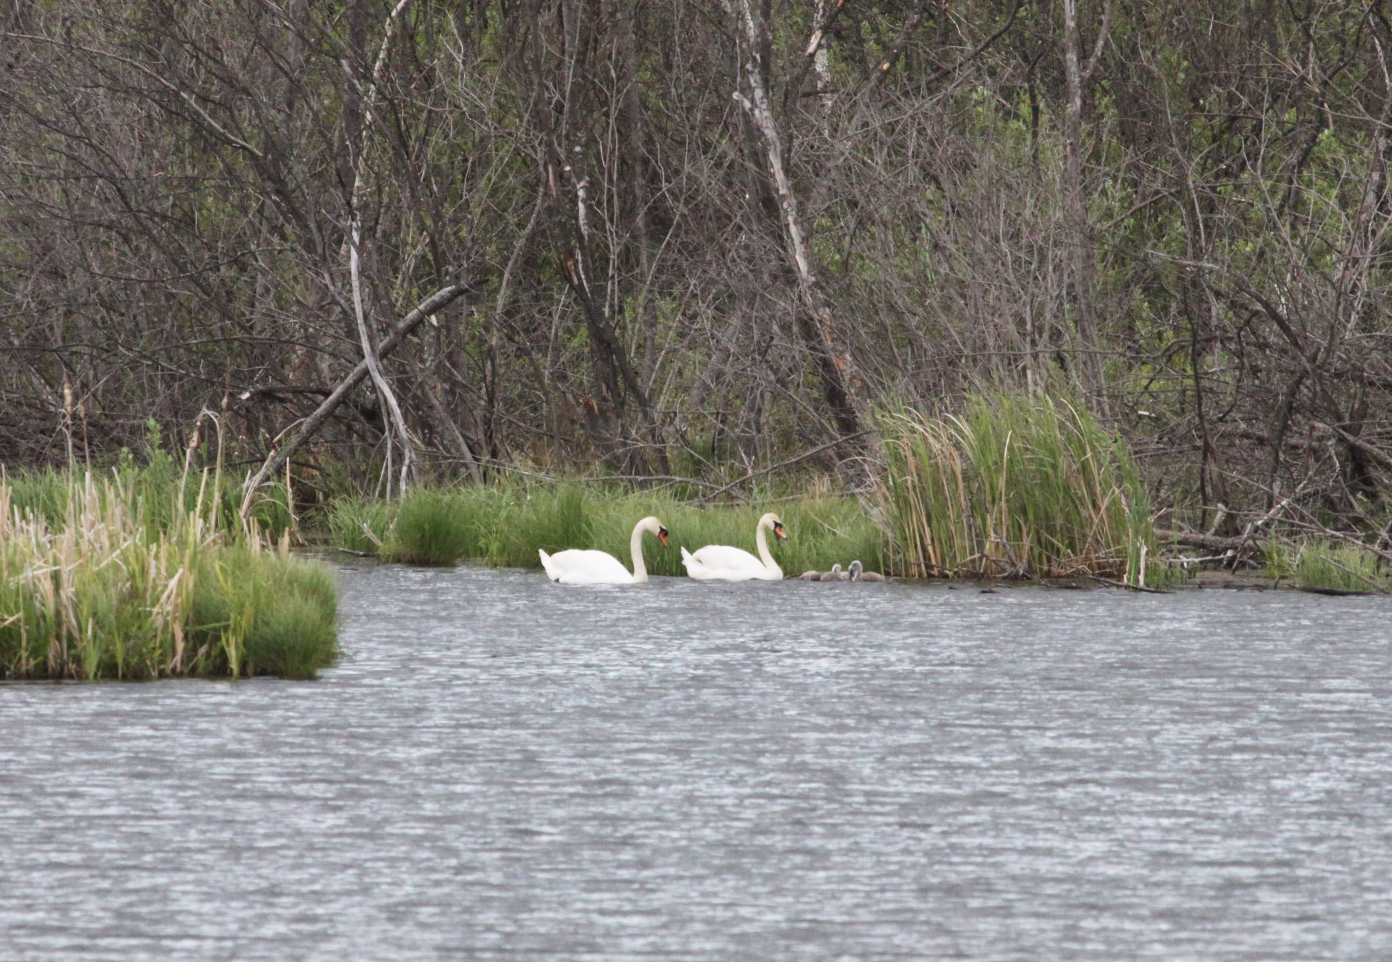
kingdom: Animalia
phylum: Chordata
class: Aves
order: Anseriformes
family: Anatidae
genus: Cygnus
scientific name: Cygnus olor
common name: Mute swan
